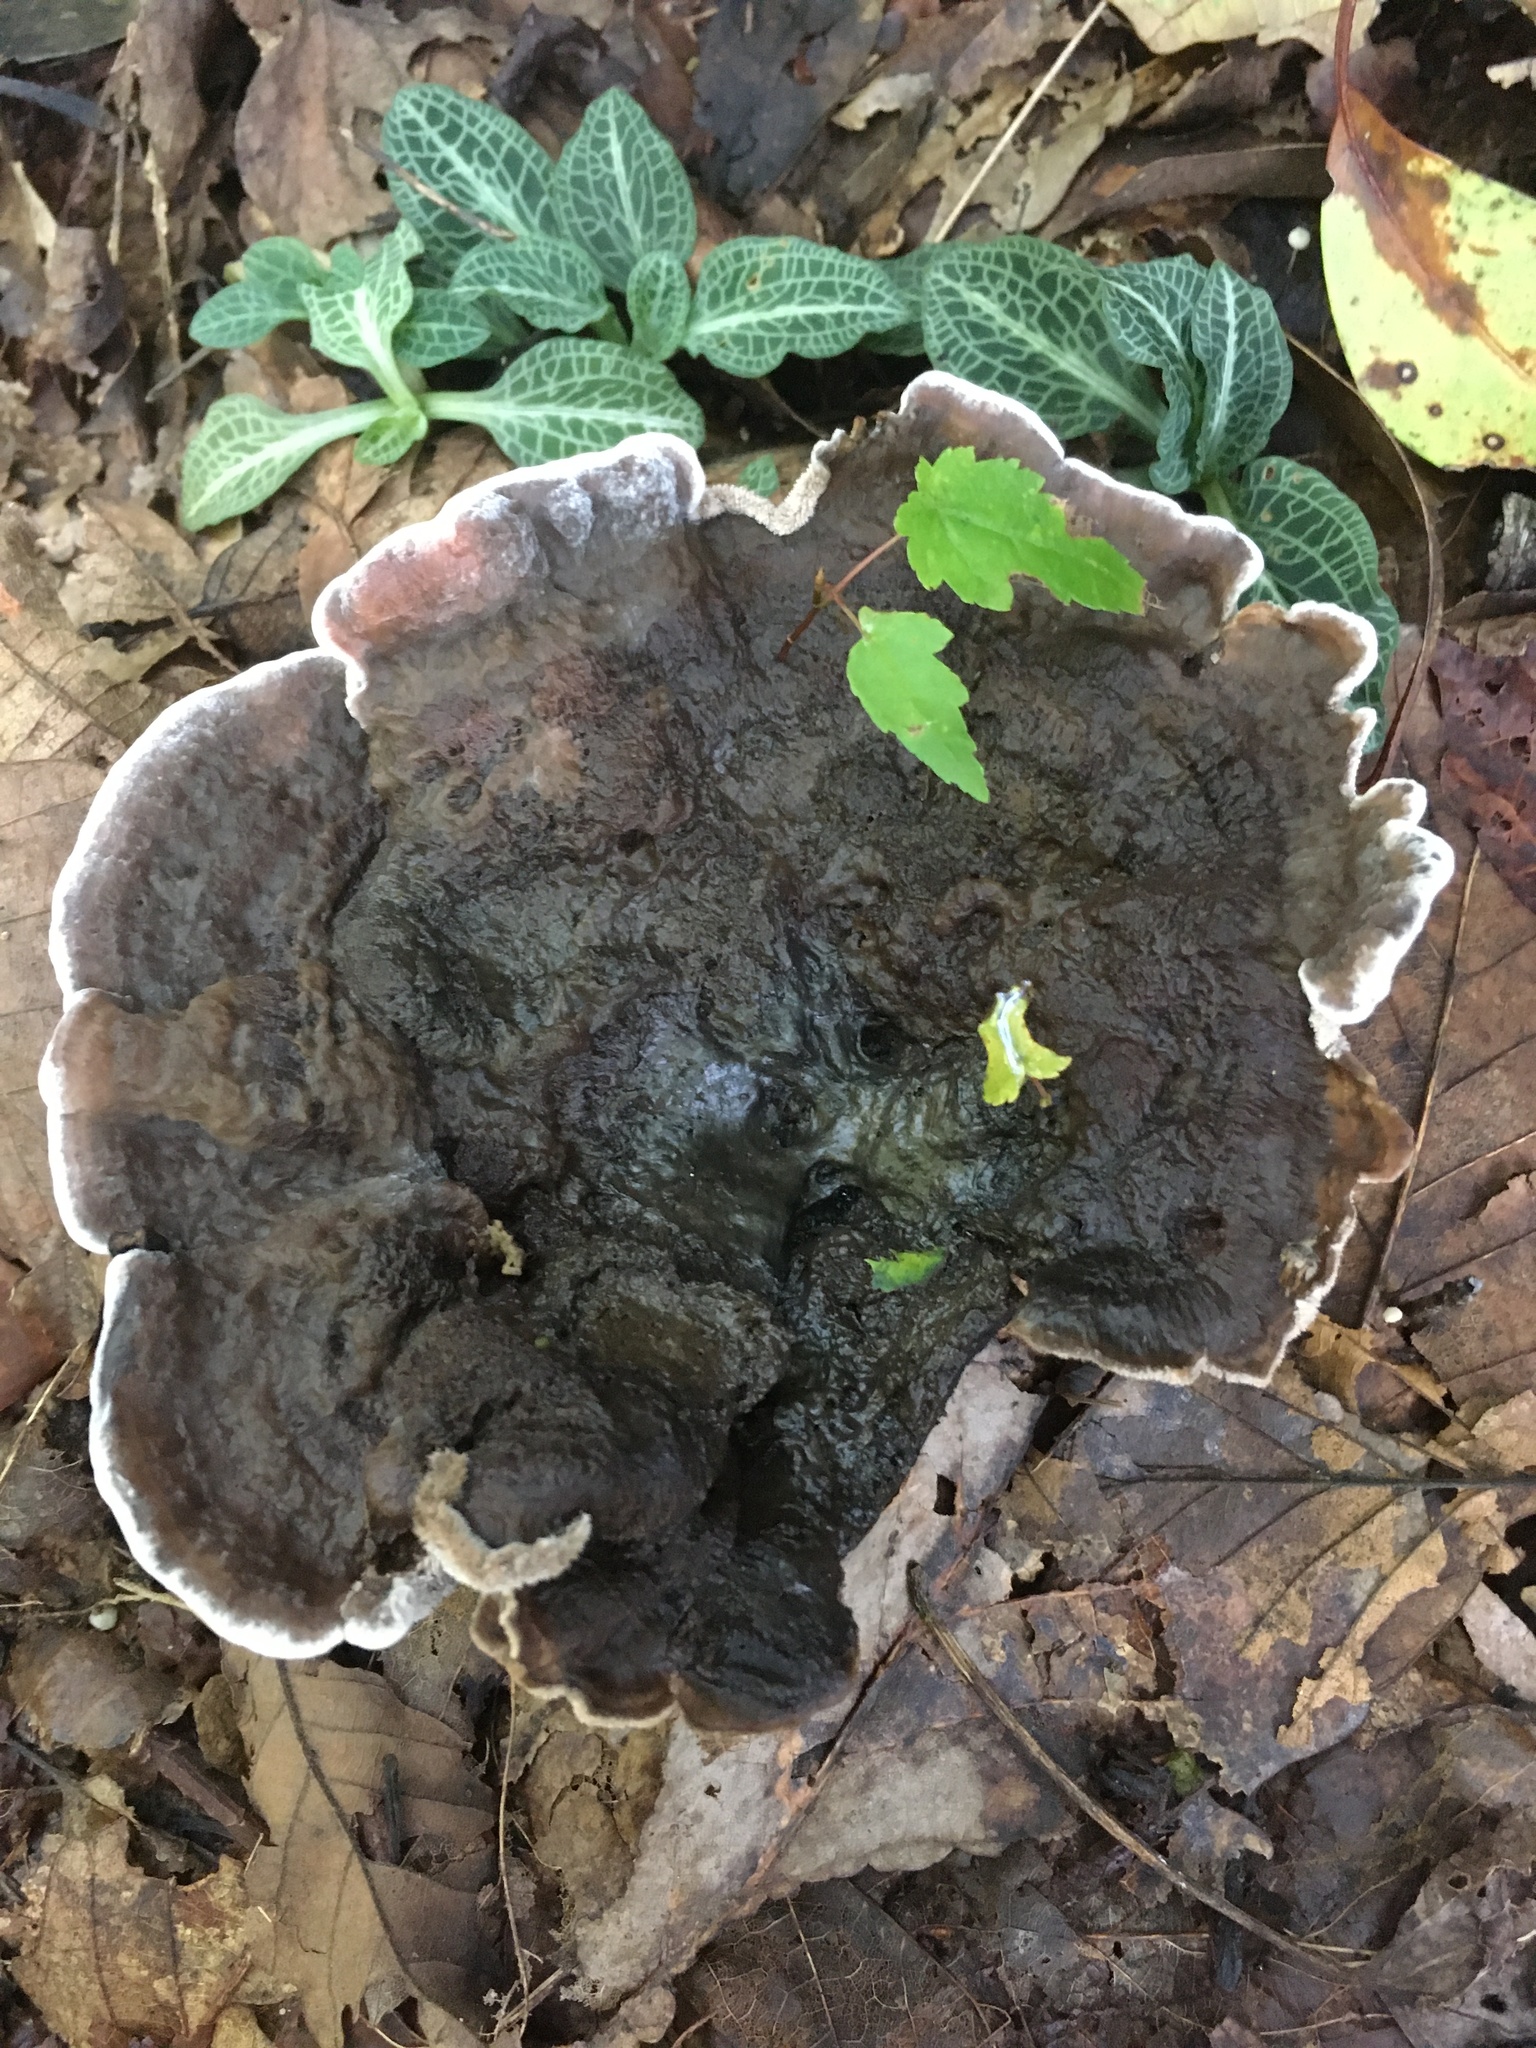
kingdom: Fungi
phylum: Basidiomycota
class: Agaricomycetes
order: Thelephorales
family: Thelephoraceae
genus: Phellodon
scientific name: Phellodon niger
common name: Black tooth
